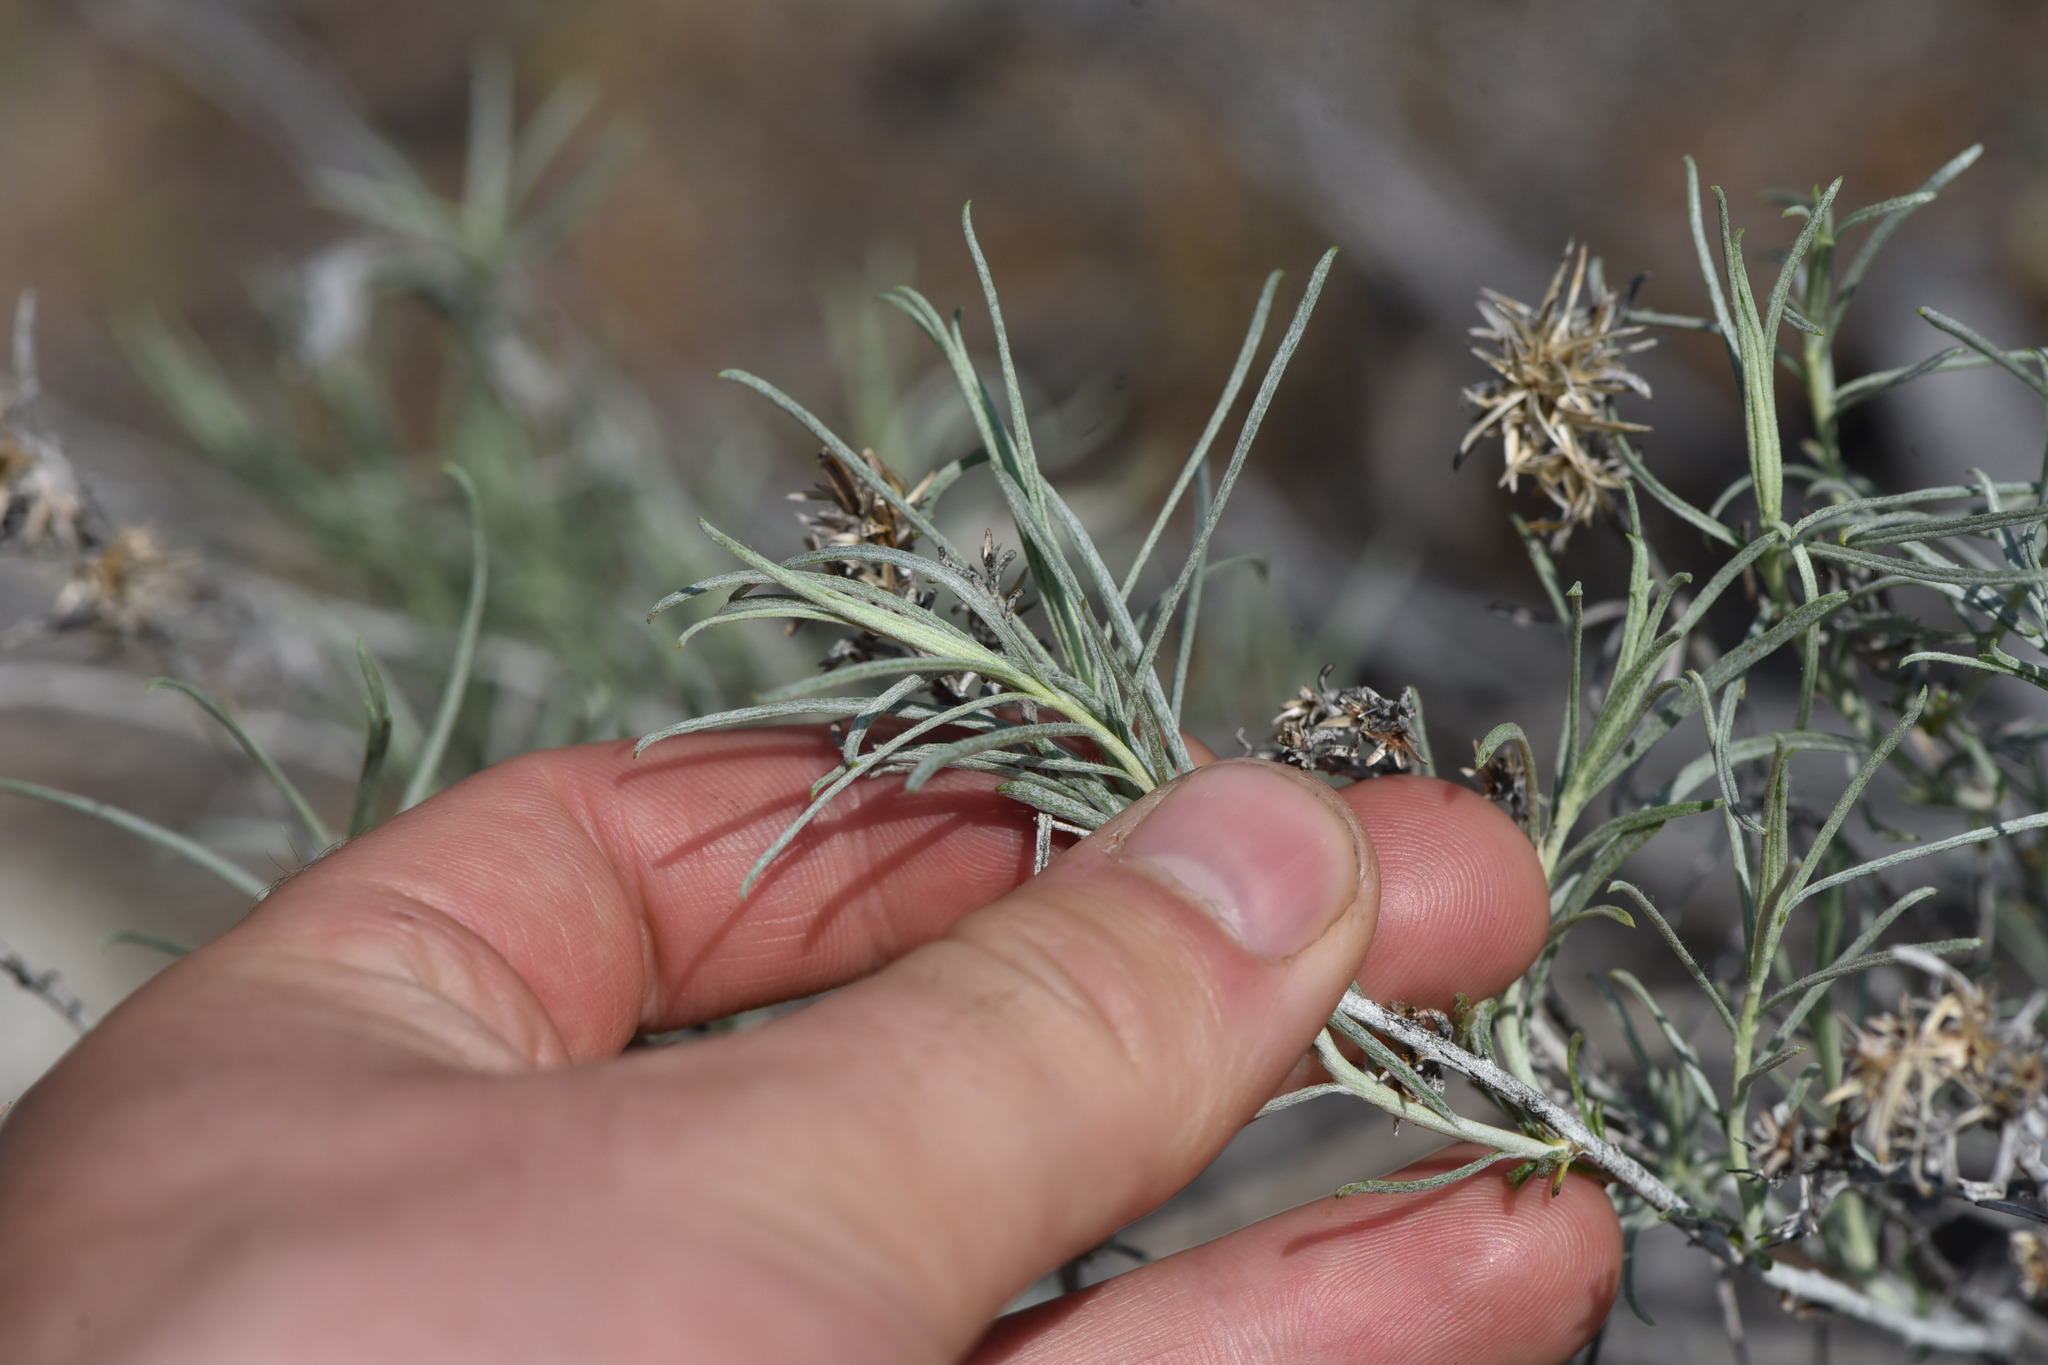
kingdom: Plantae
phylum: Tracheophyta
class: Magnoliopsida
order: Asterales
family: Asteraceae
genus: Ericameria
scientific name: Ericameria nauseosa
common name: Rubber rabbitbrush
